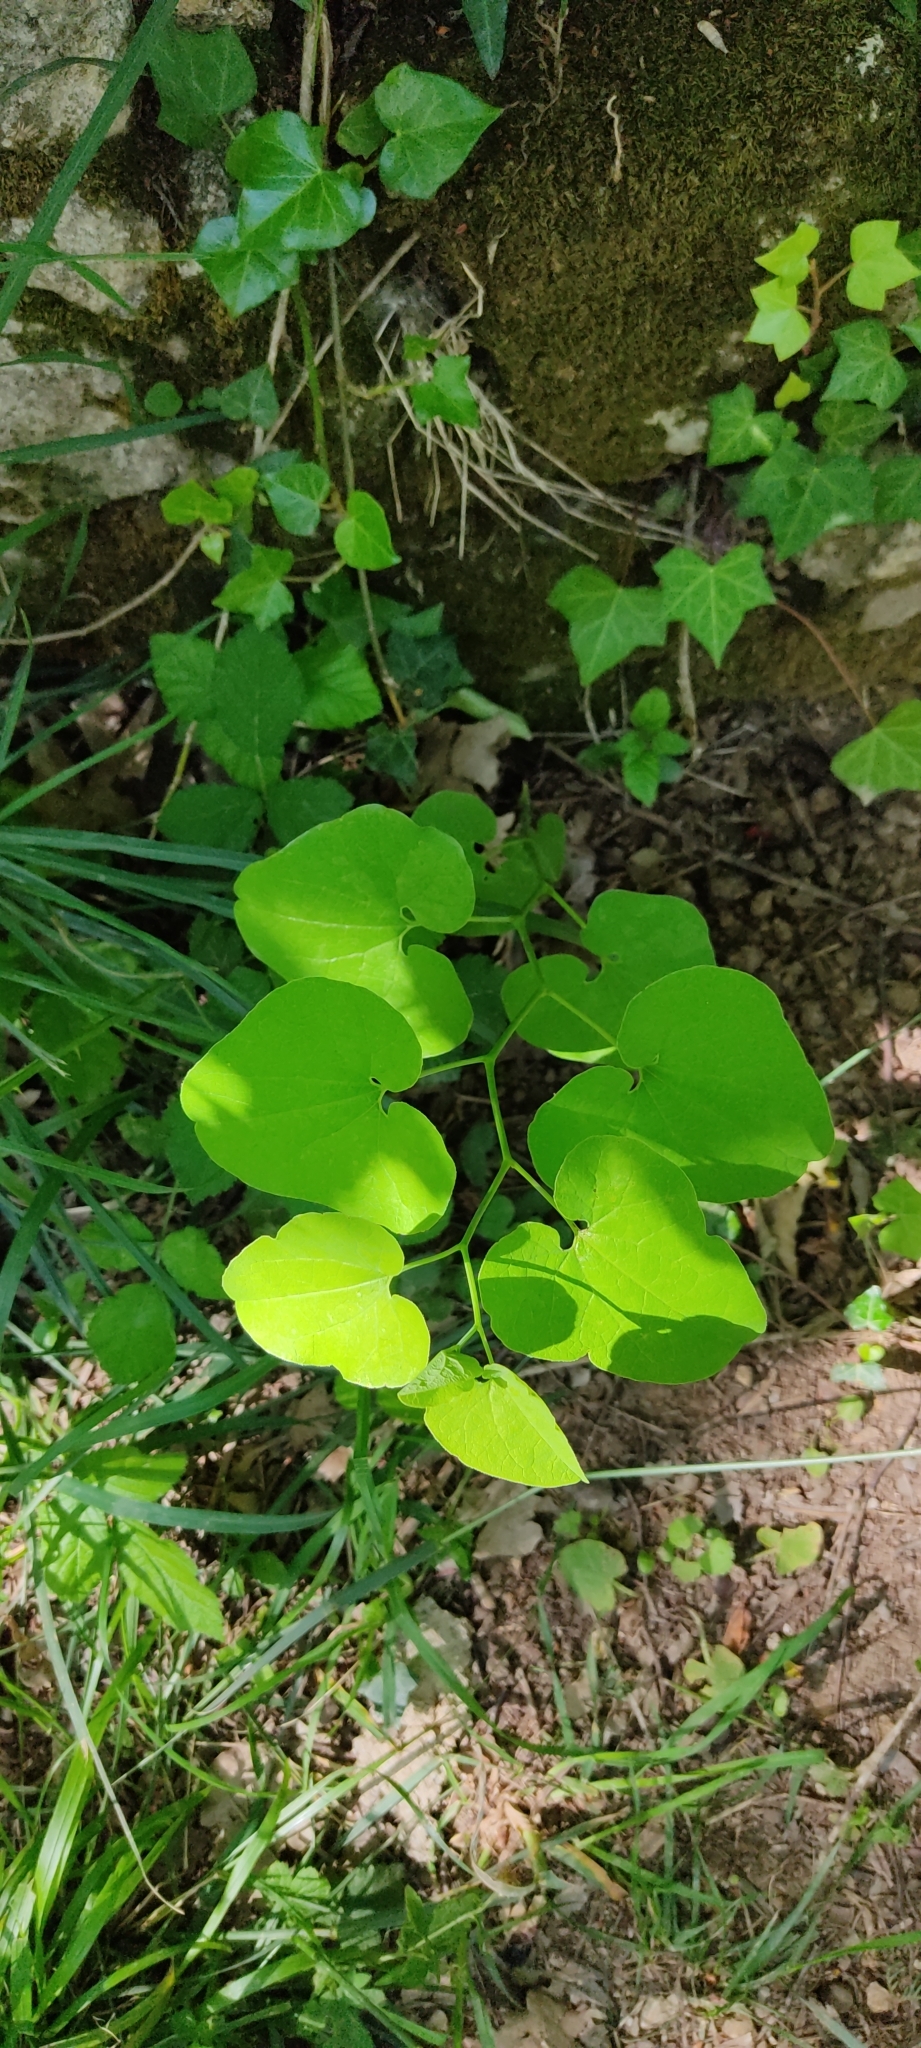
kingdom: Plantae
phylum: Tracheophyta
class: Magnoliopsida
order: Piperales
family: Aristolochiaceae
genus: Aristolochia
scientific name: Aristolochia clematitis
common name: Birthwort
